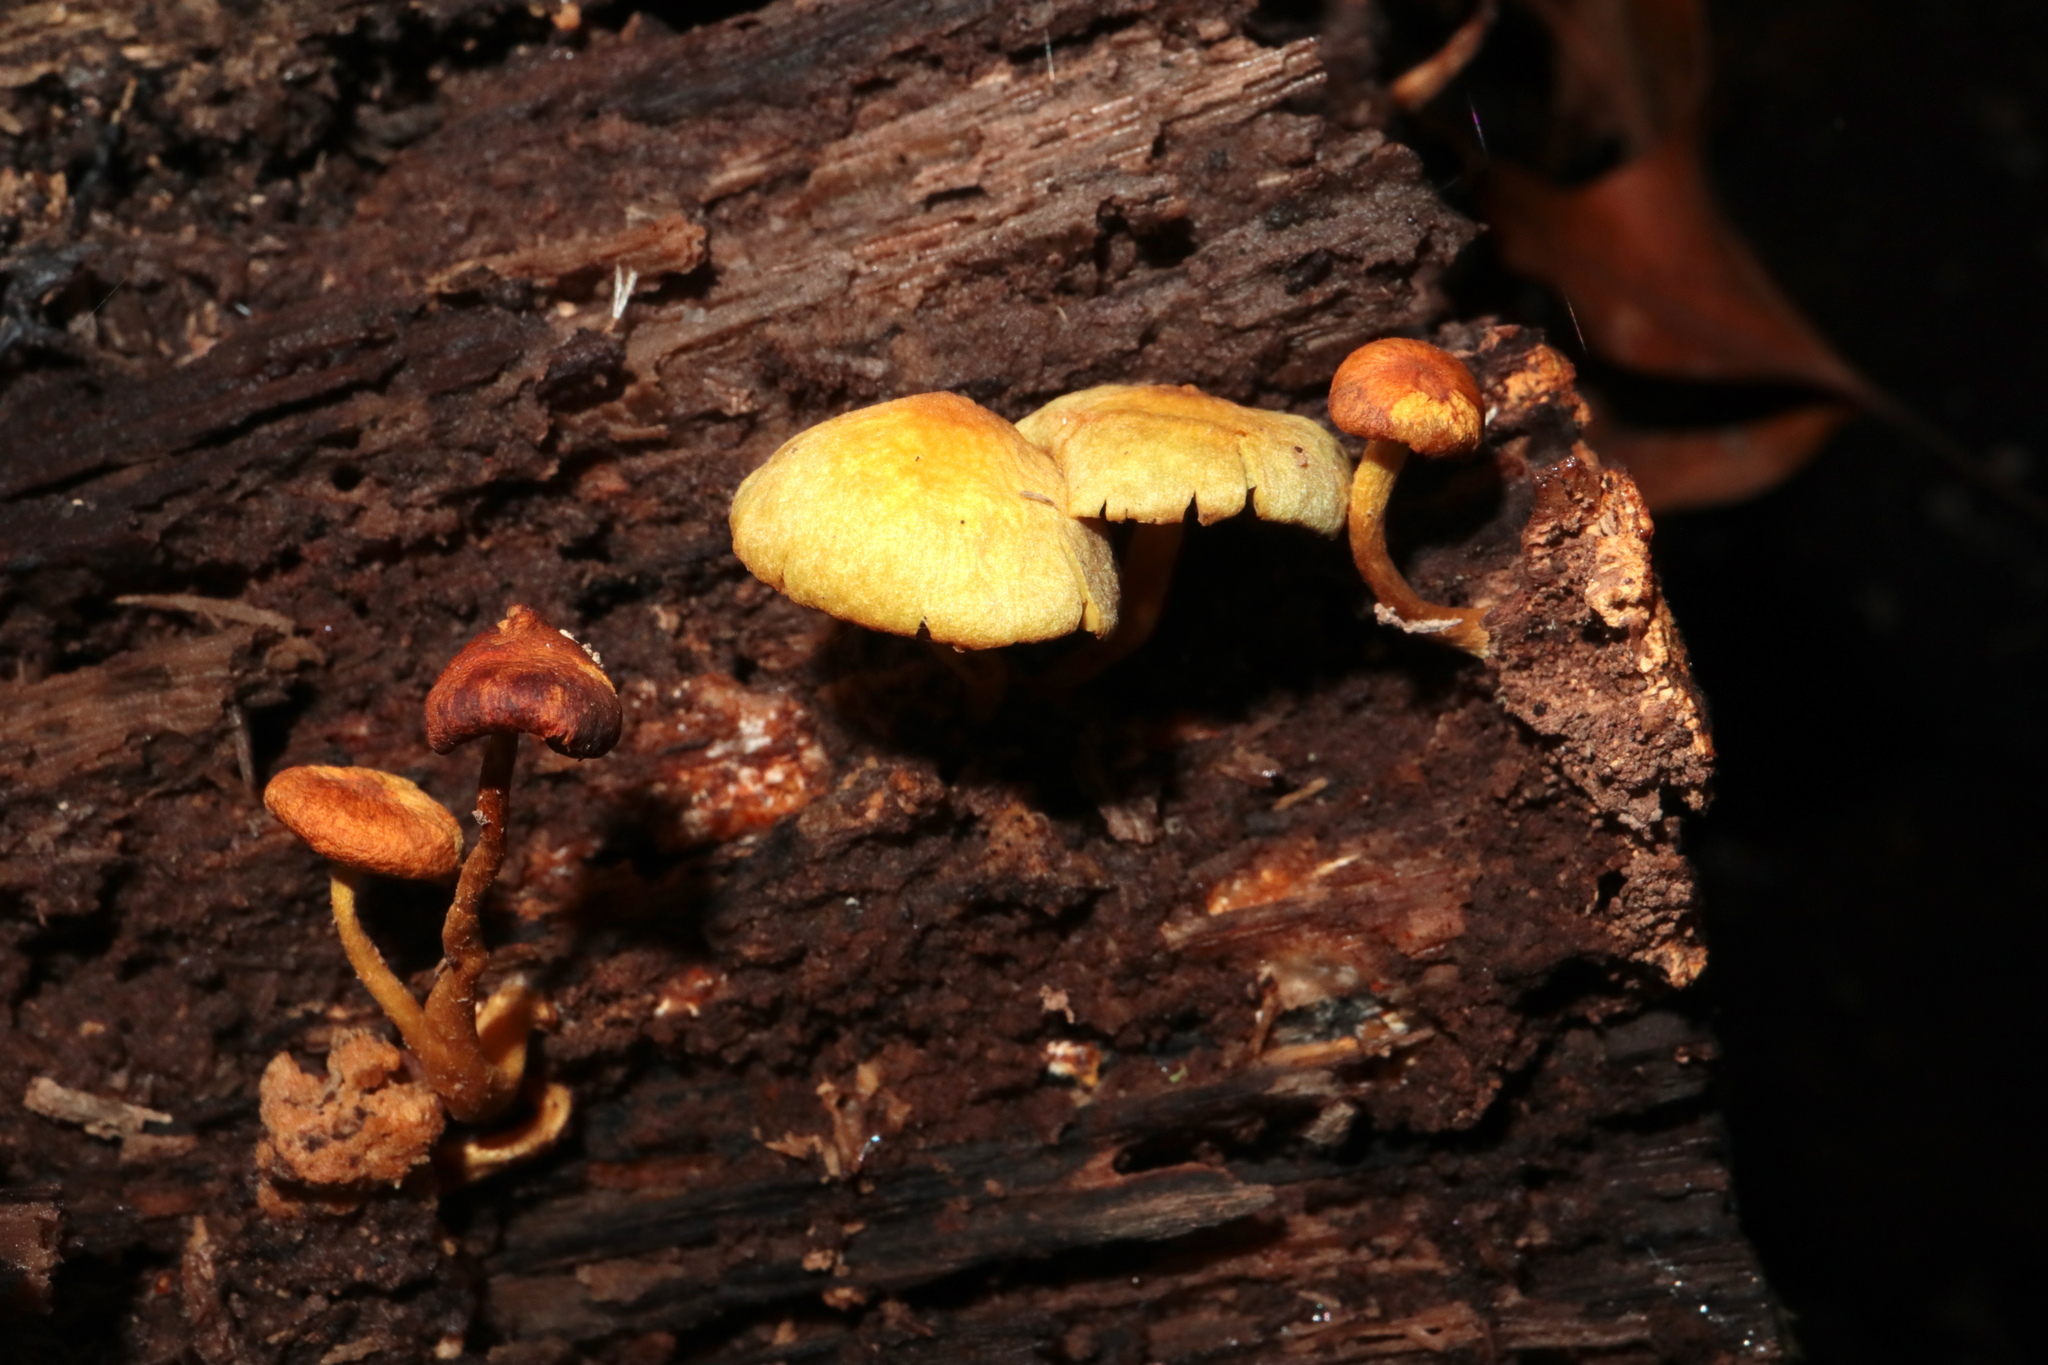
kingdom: Fungi
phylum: Basidiomycota
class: Agaricomycetes
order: Agaricales
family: Strophariaceae
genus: Hypholoma
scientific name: Hypholoma fasciculare
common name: Sulphur tuft
